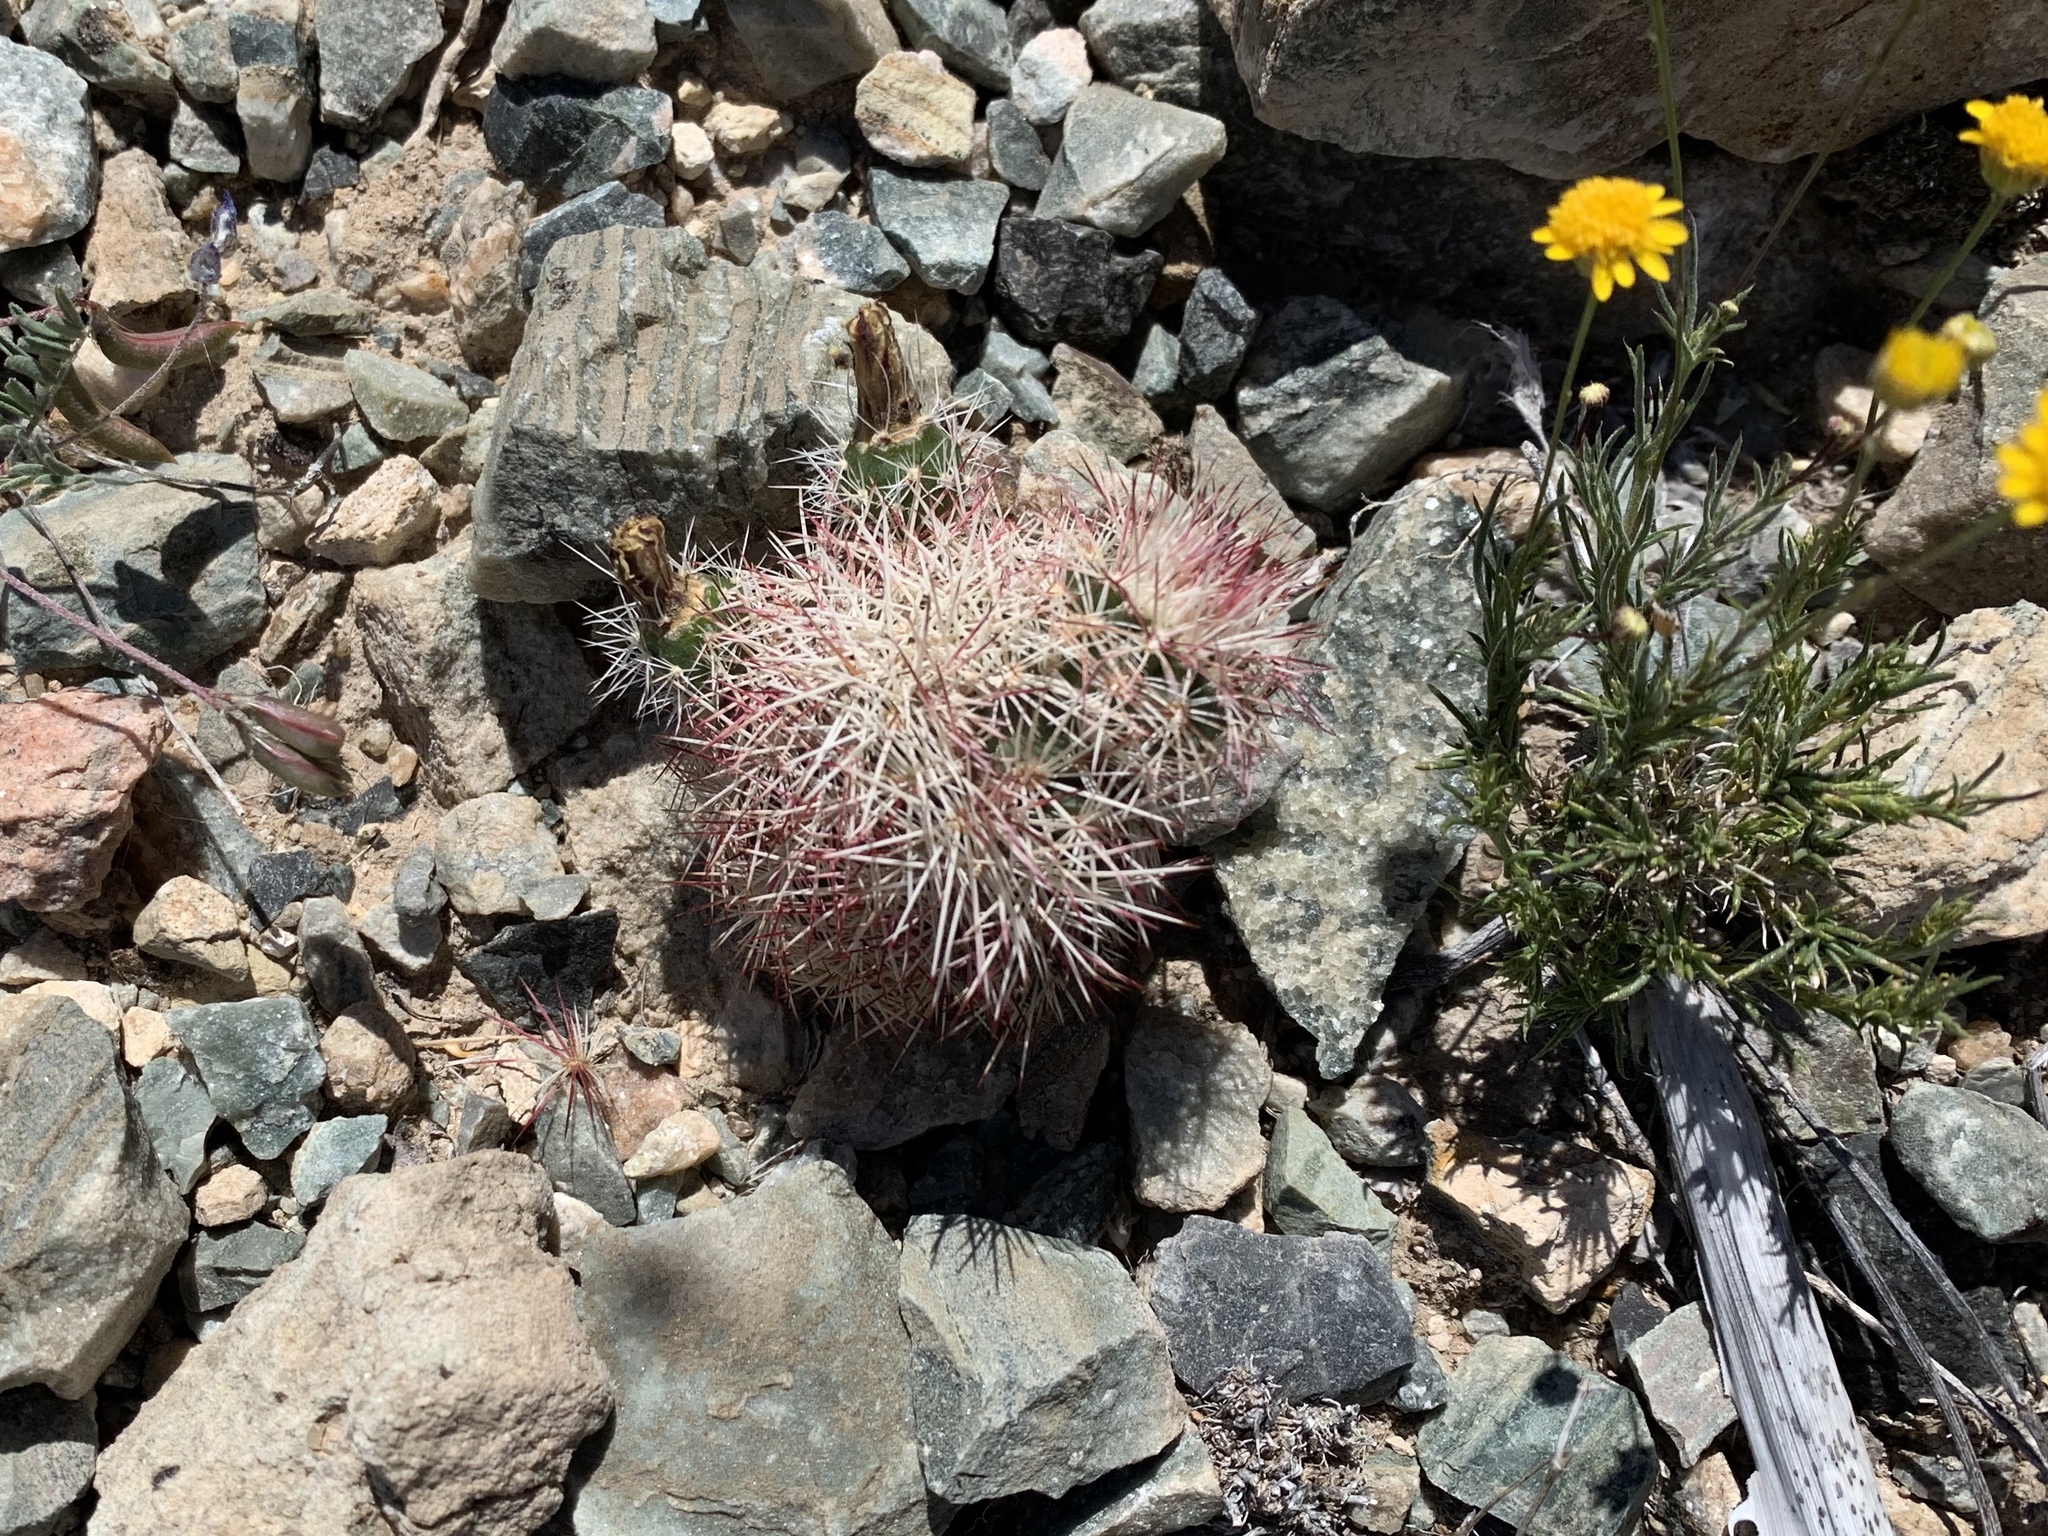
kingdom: Plantae
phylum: Tracheophyta
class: Magnoliopsida
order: Caryophyllales
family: Cactaceae
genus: Echinocereus
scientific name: Echinocereus dasyacanthus
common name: Spiny hedgehog cactus
